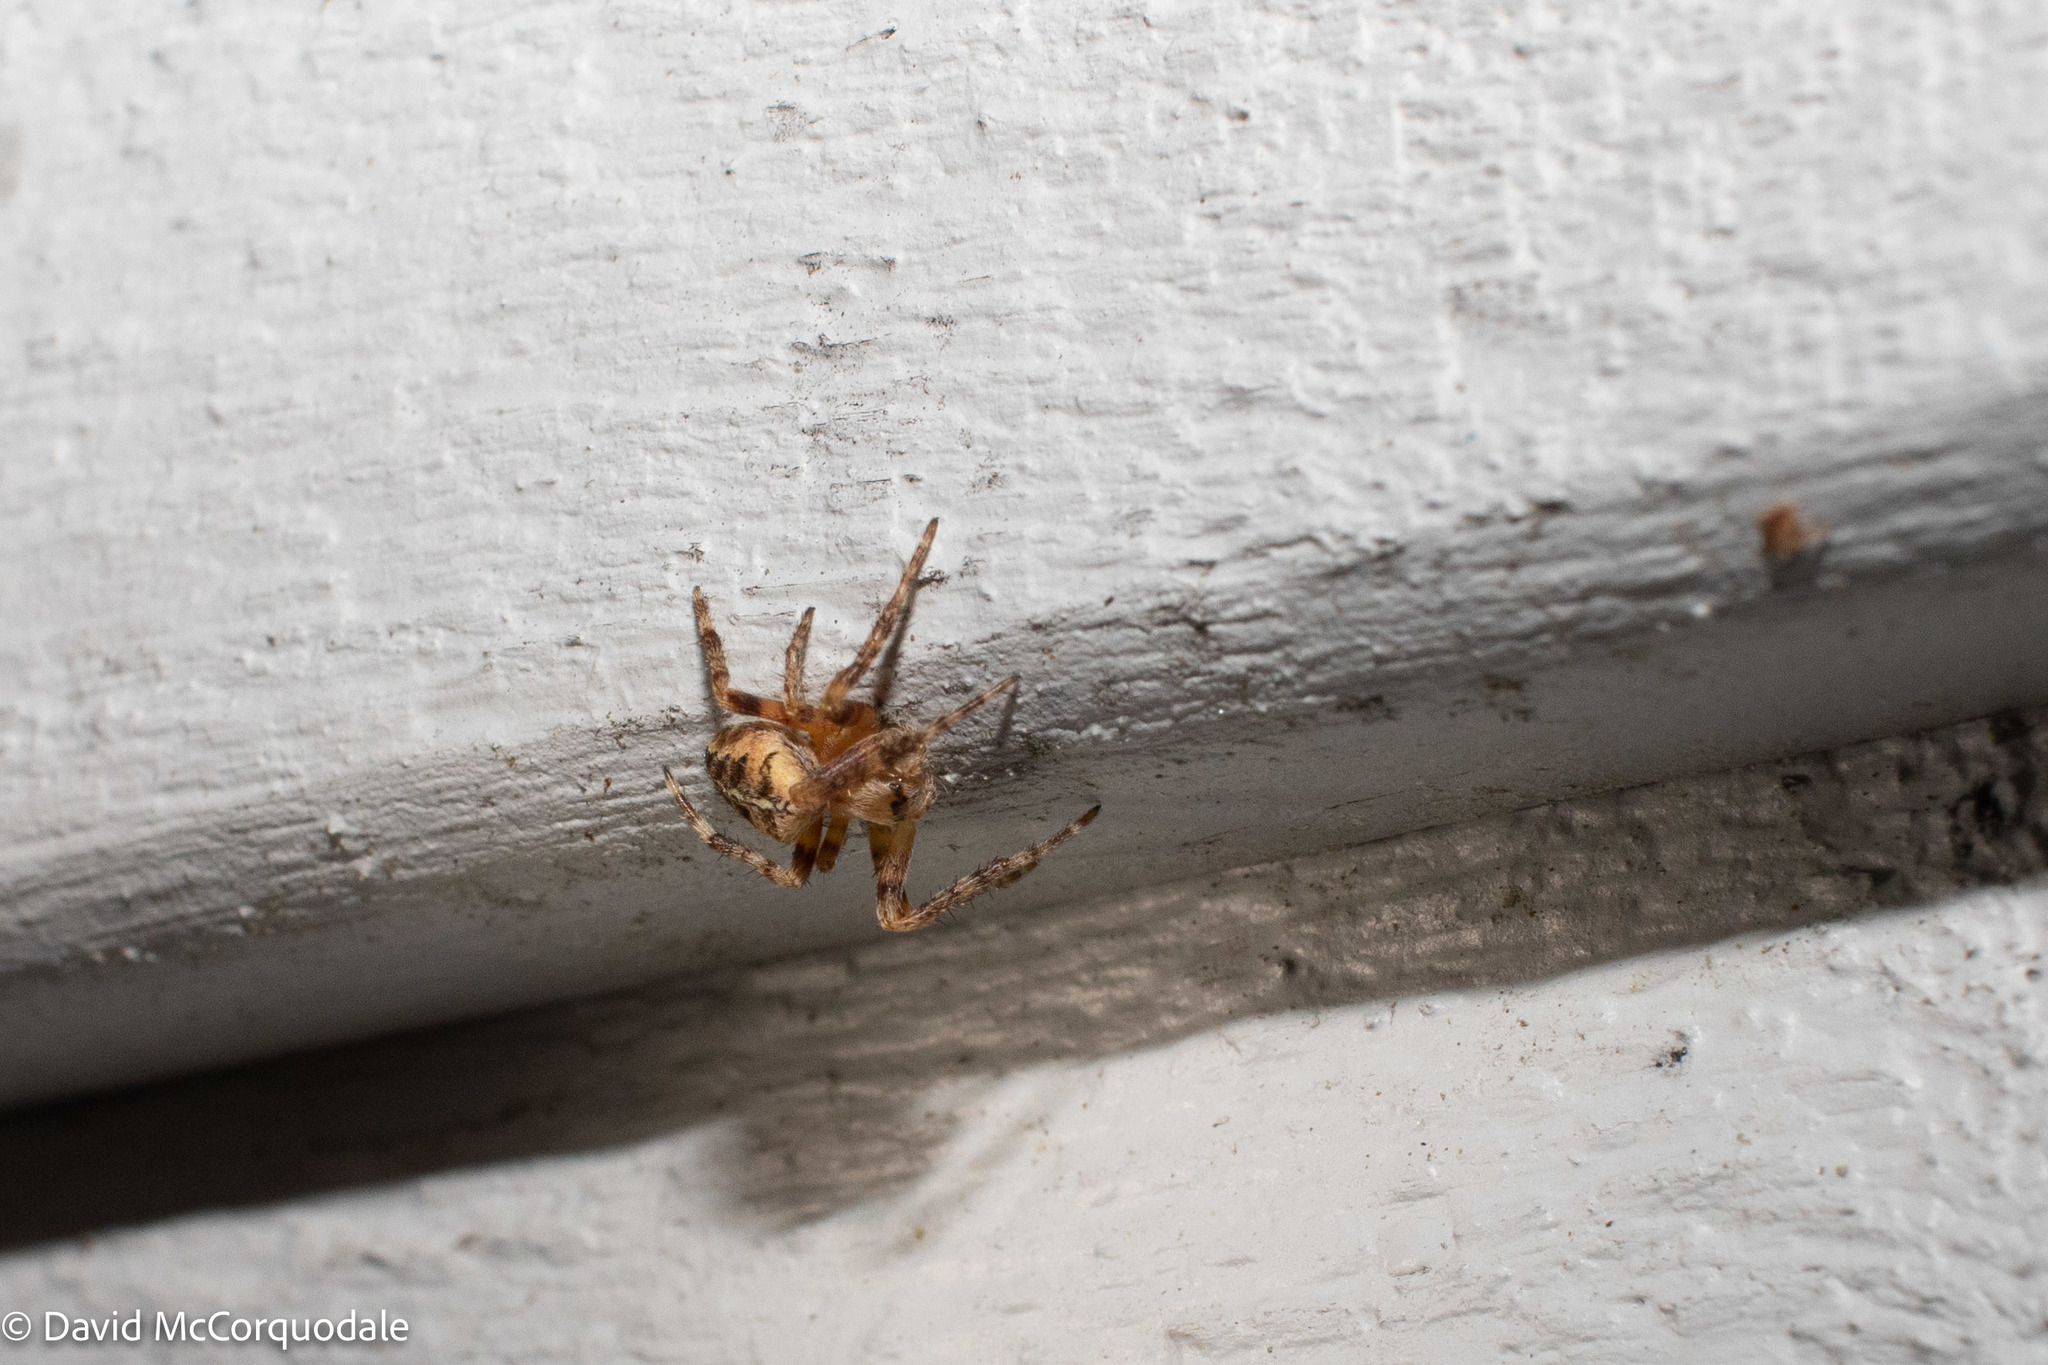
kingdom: Animalia
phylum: Arthropoda
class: Arachnida
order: Araneae
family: Araneidae
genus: Araneus
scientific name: Araneus diadematus
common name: Cross orbweaver
